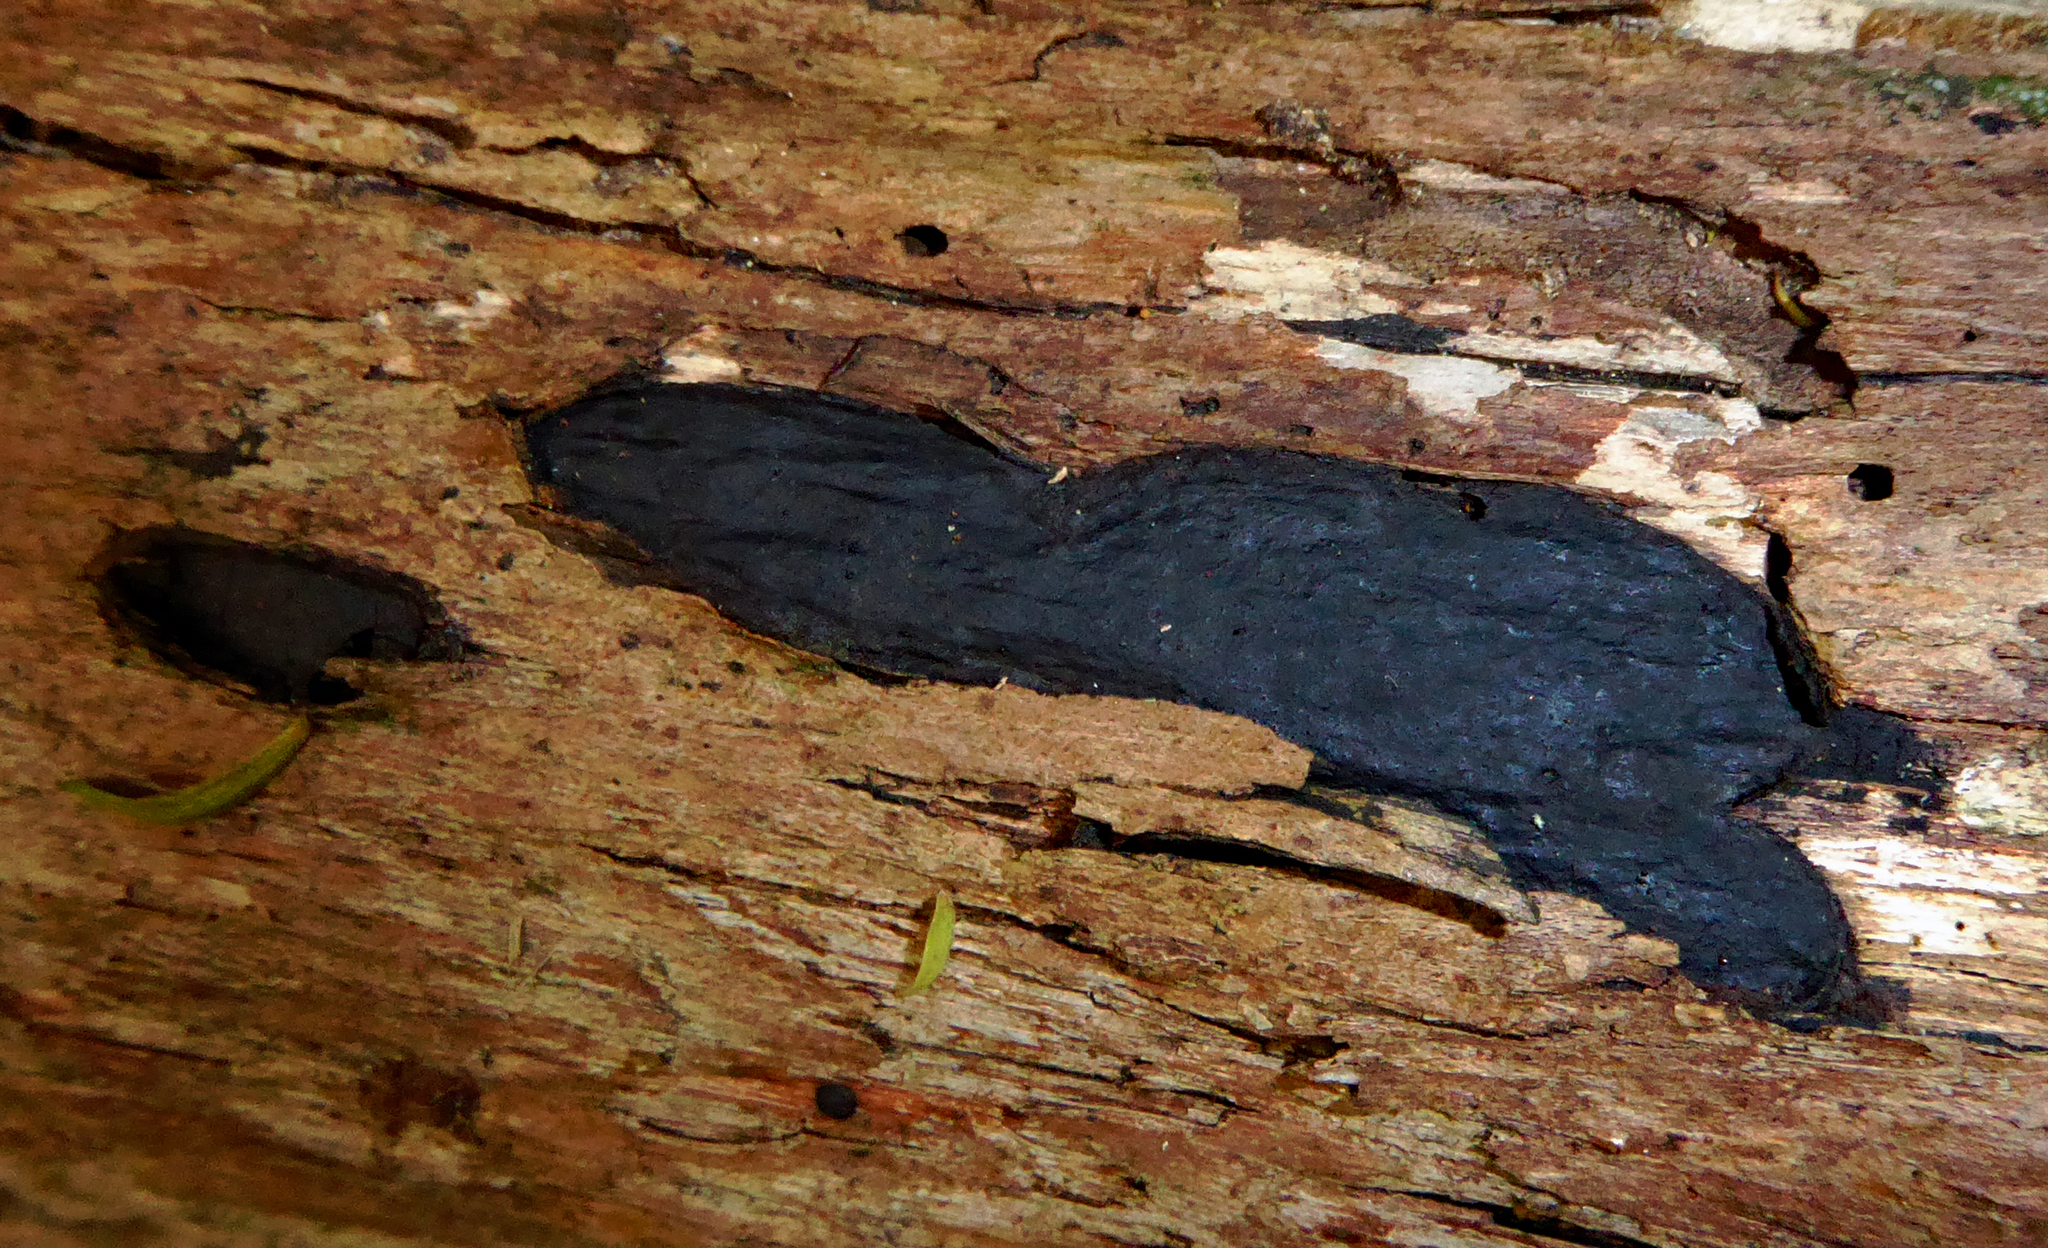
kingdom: Fungi
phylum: Ascomycota
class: Sordariomycetes
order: Xylariales
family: Graphostromataceae
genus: Biscogniauxia
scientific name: Biscogniauxia capnodes
